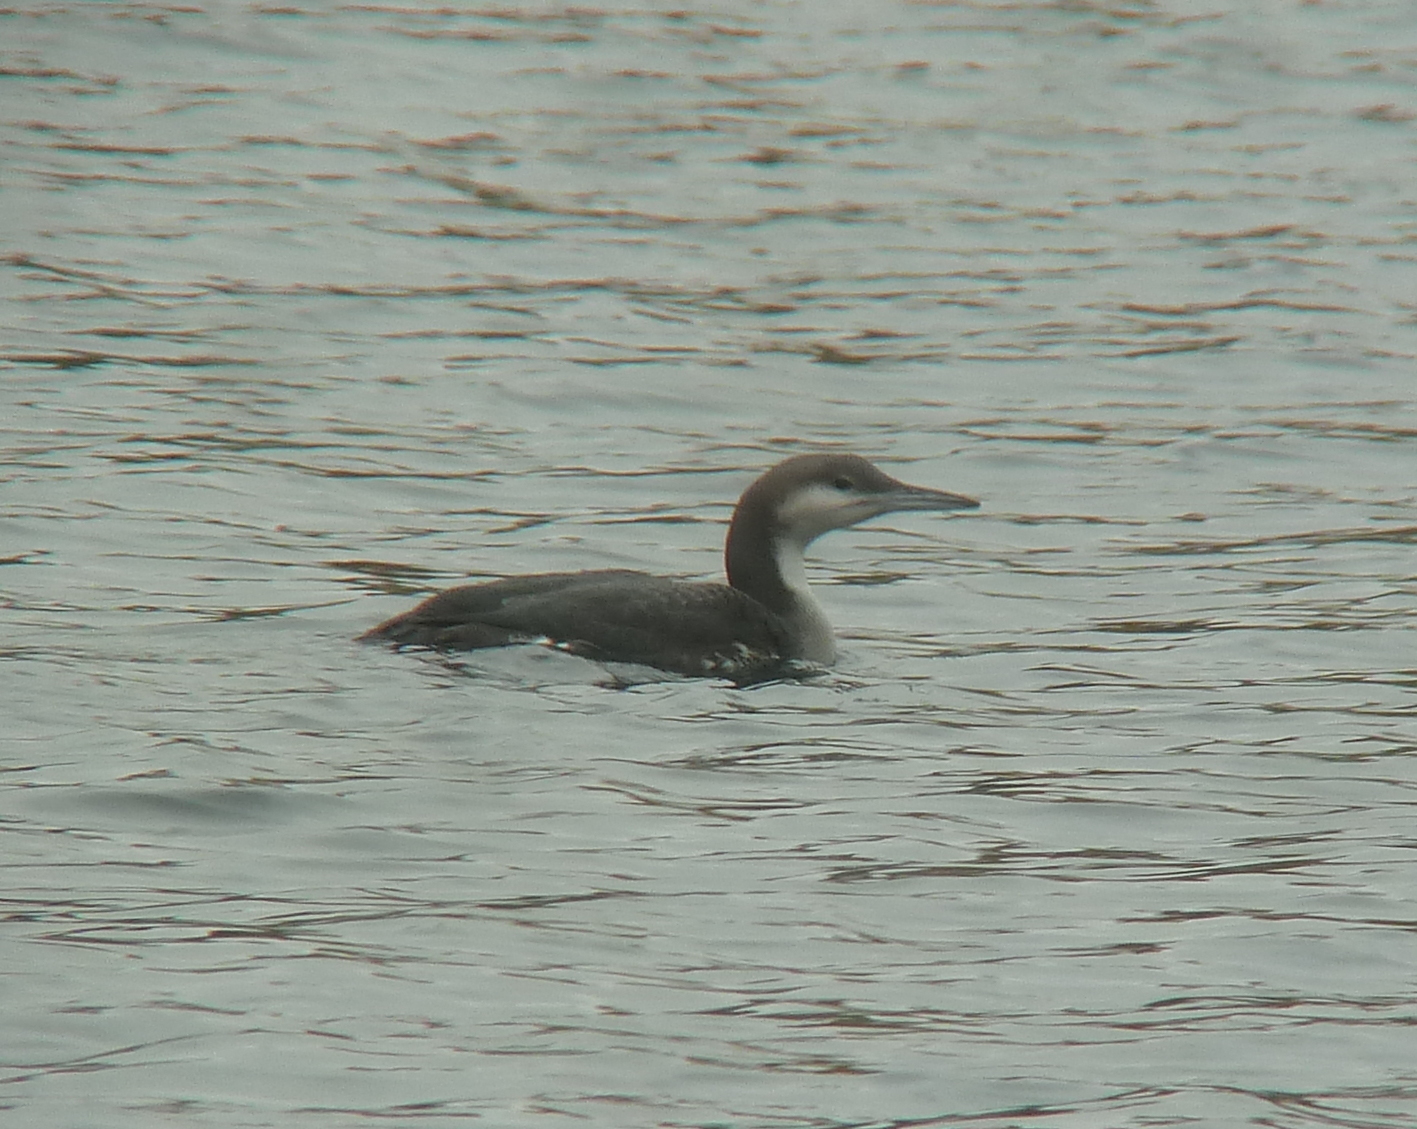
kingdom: Animalia
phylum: Chordata
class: Aves
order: Gaviiformes
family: Gaviidae
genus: Gavia
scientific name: Gavia arctica
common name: Black-throated loon
